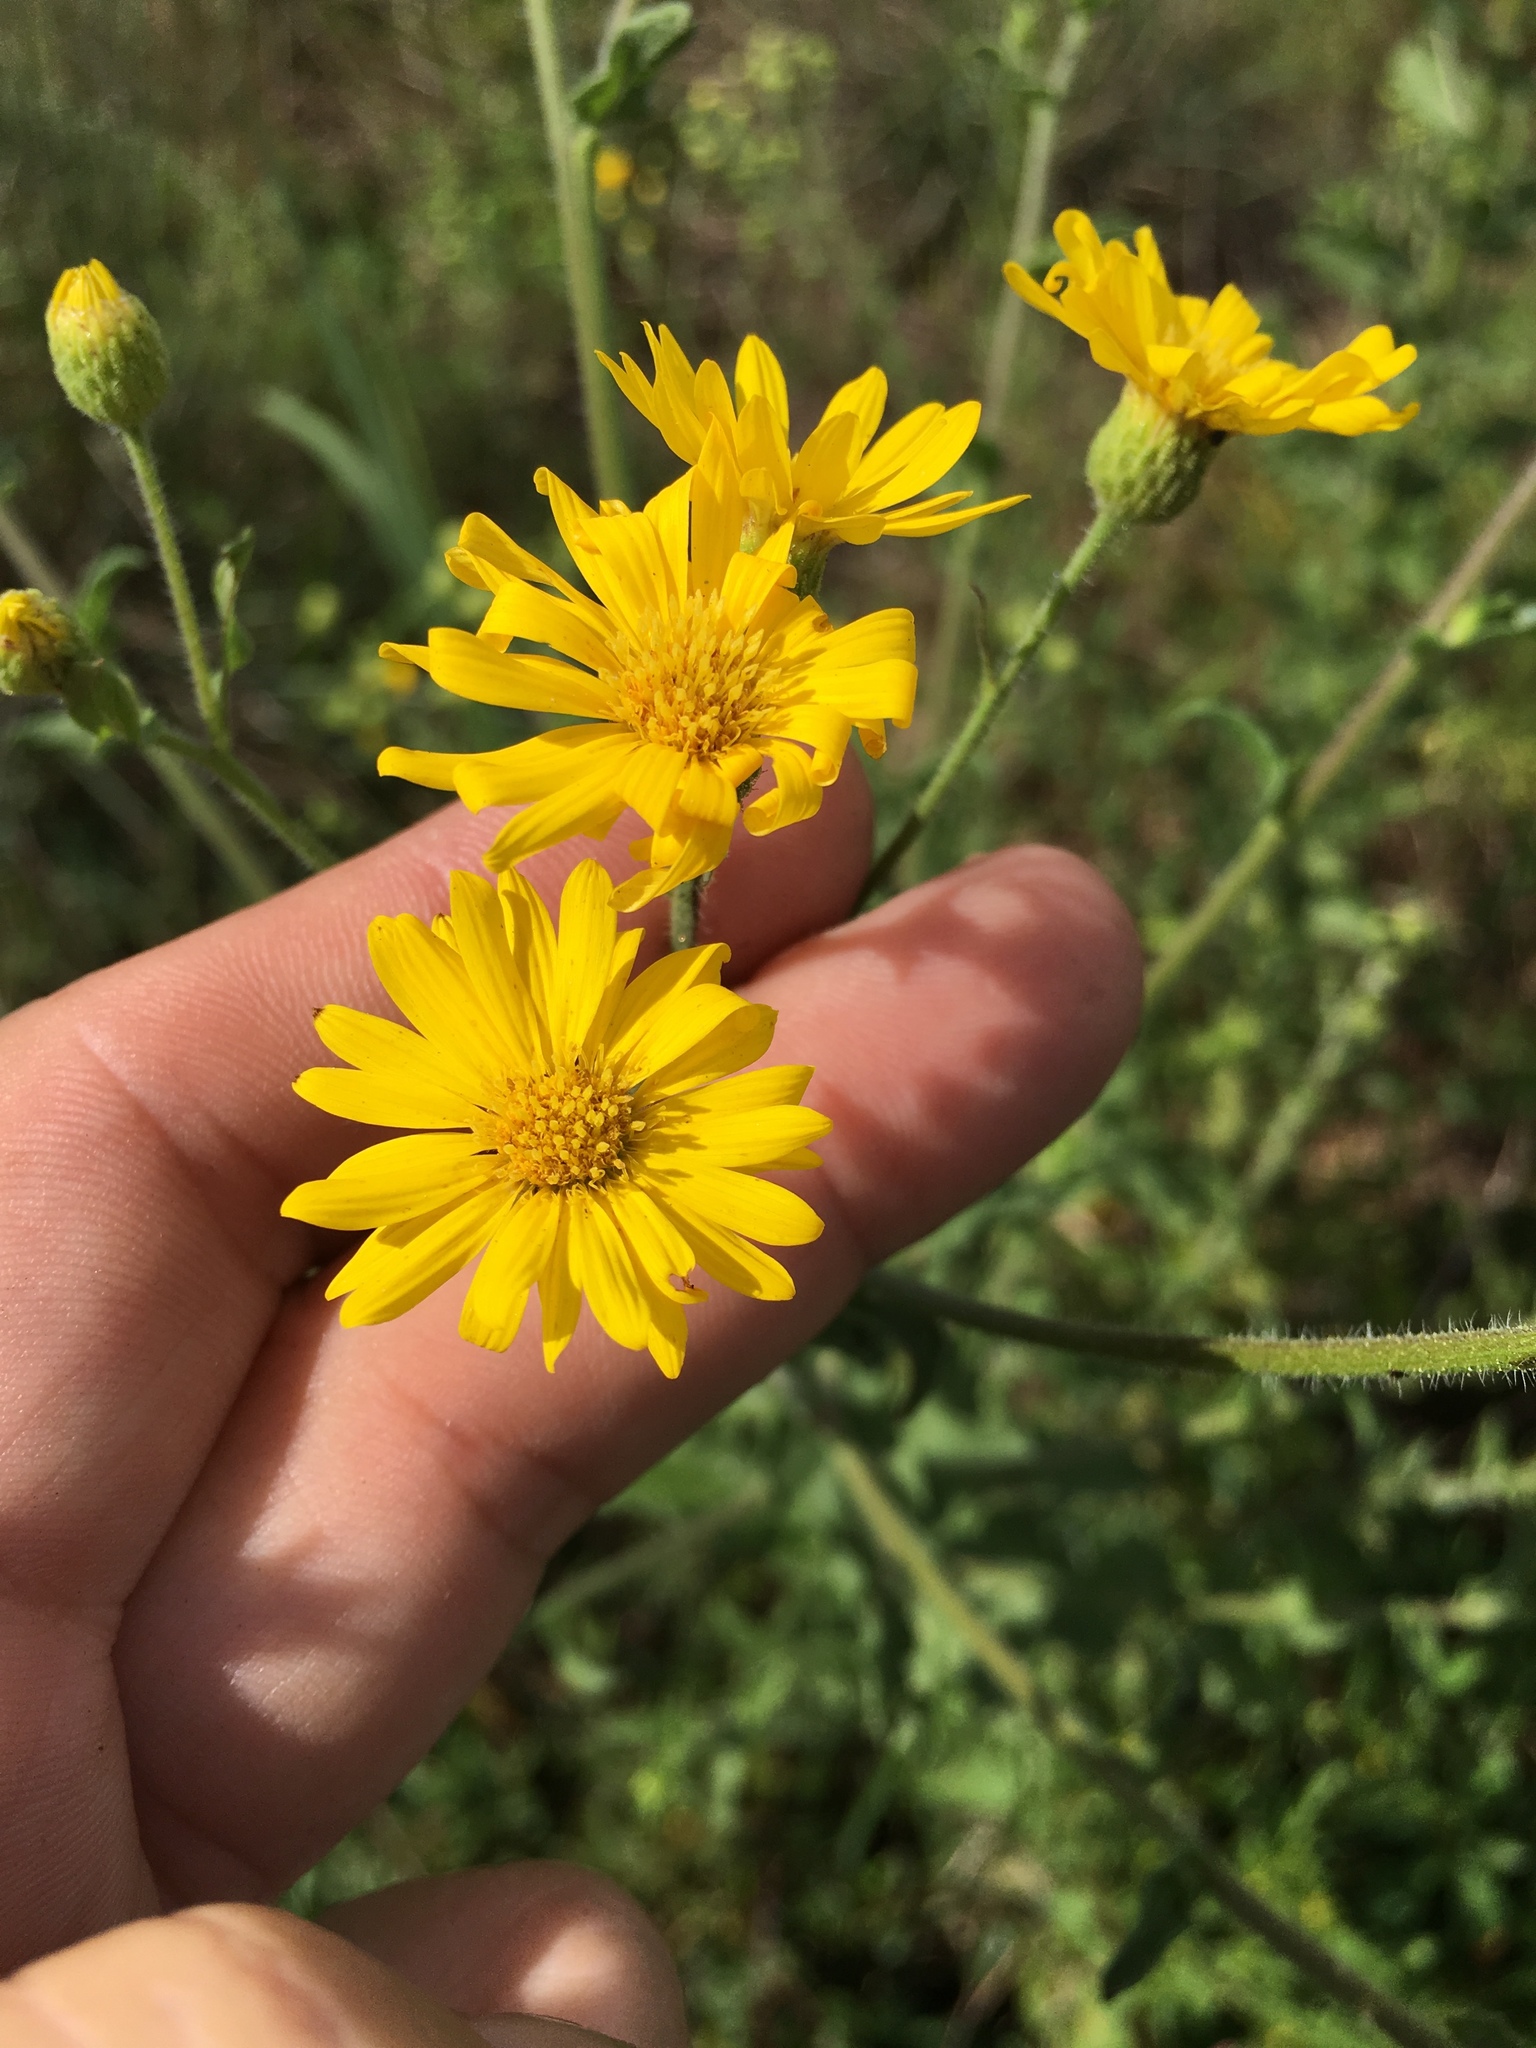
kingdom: Plantae
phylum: Tracheophyta
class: Magnoliopsida
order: Asterales
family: Asteraceae
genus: Heterotheca
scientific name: Heterotheca subaxillaris
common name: Camphorweed
